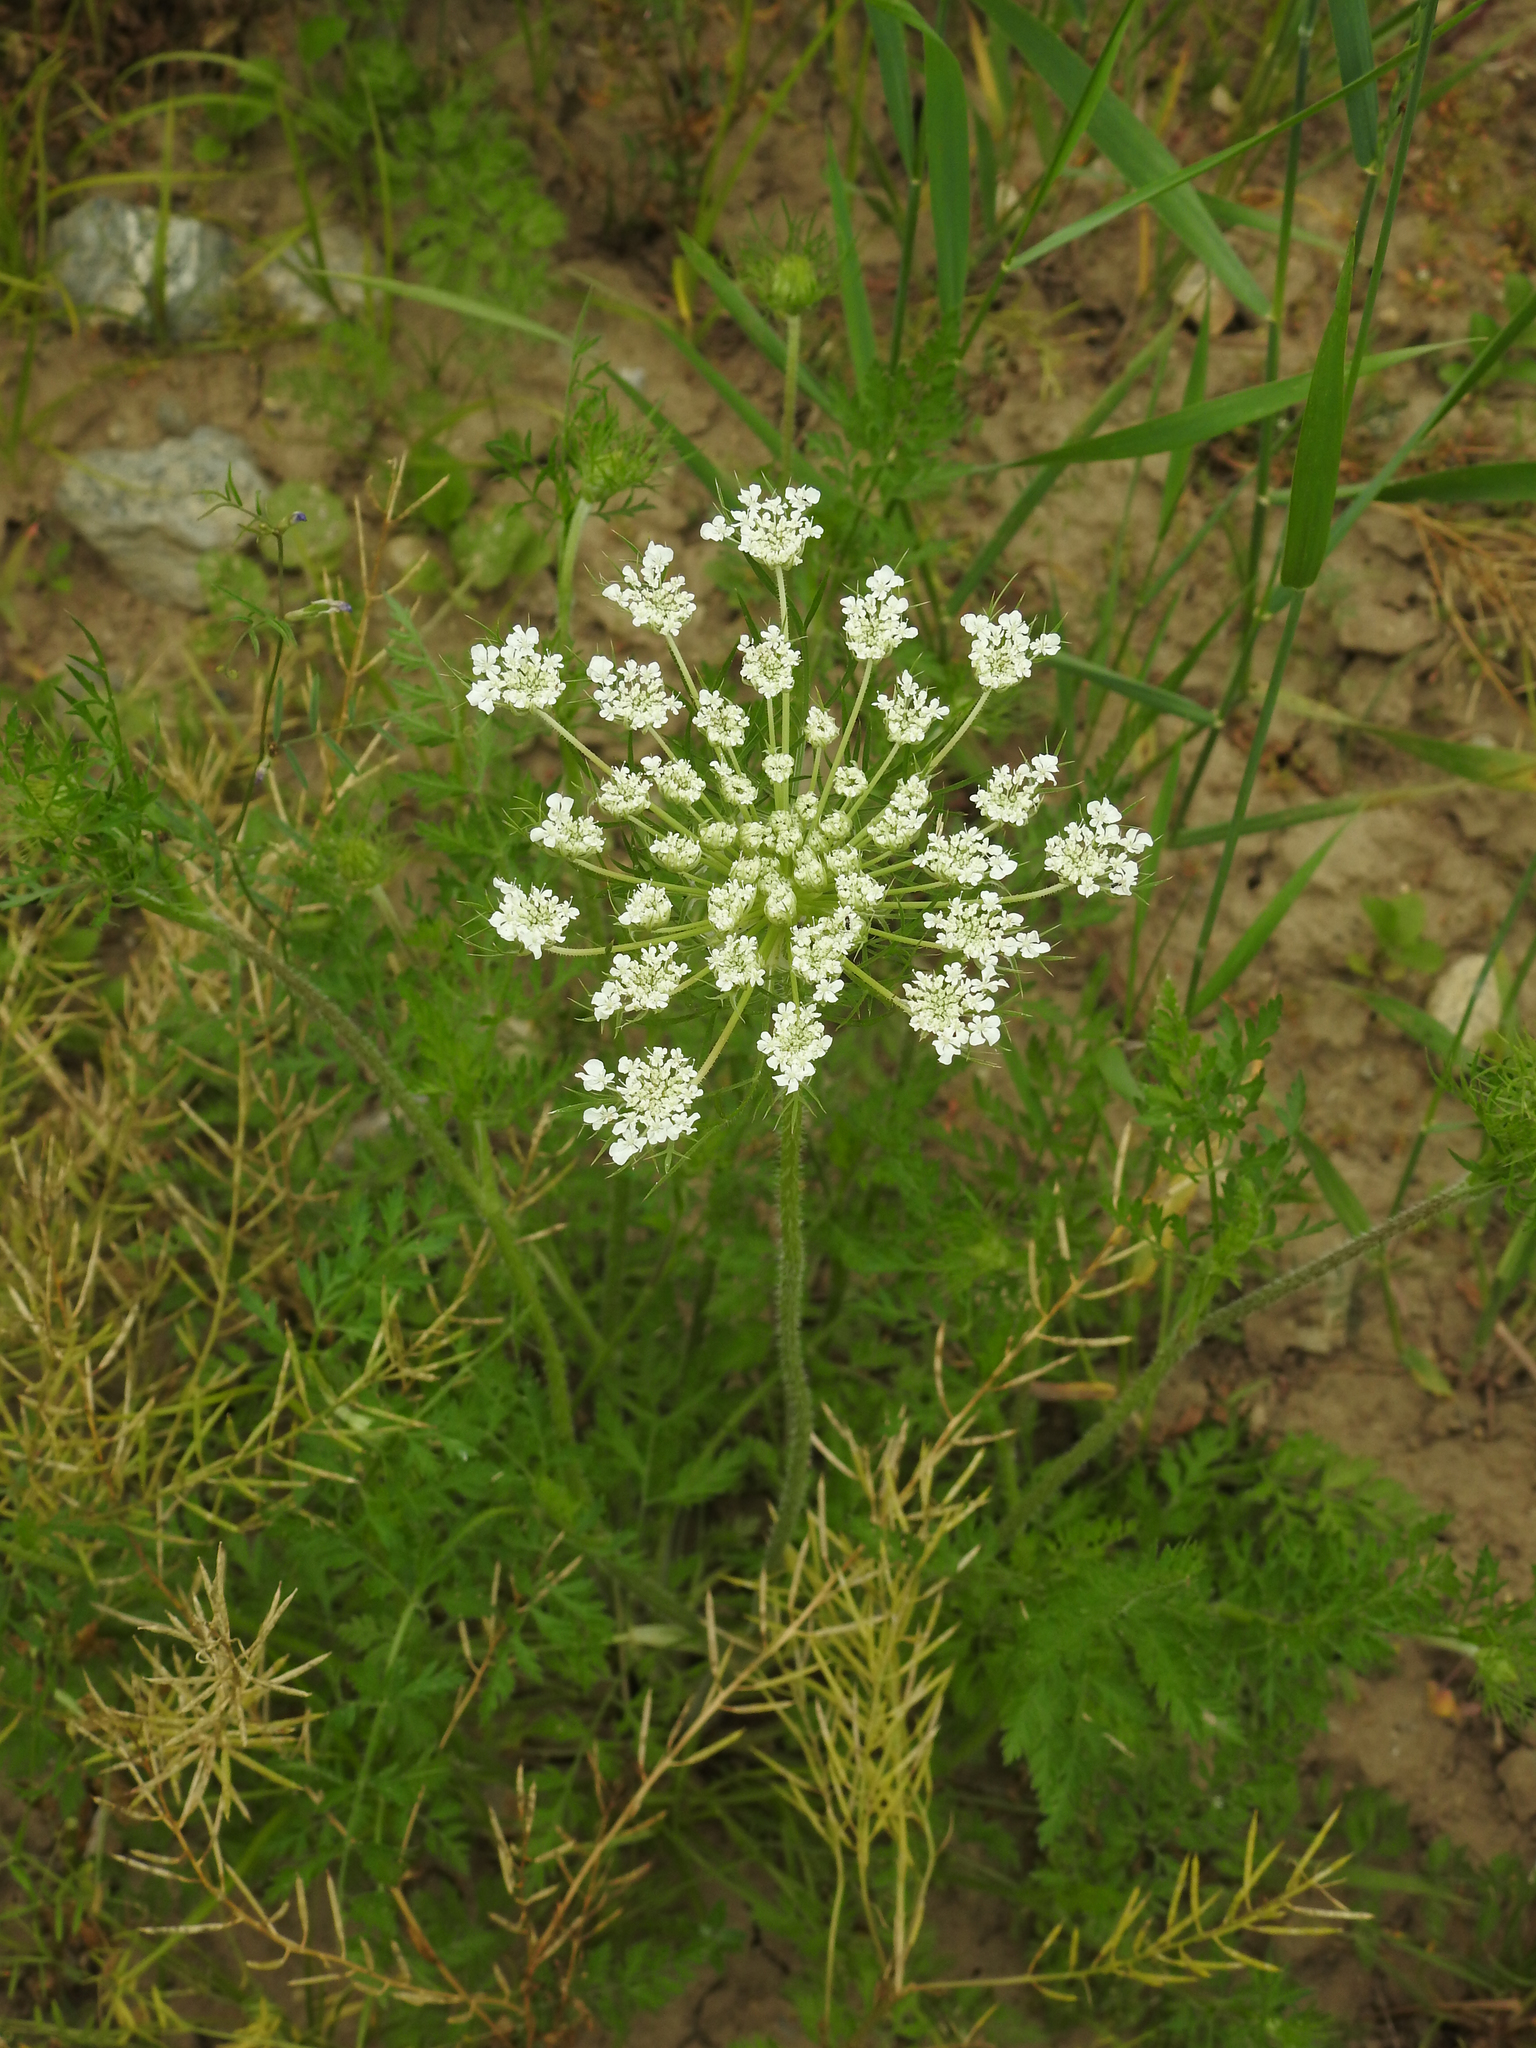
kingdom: Plantae
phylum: Tracheophyta
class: Magnoliopsida
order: Apiales
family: Apiaceae
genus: Daucus
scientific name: Daucus carota
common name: Wild carrot
